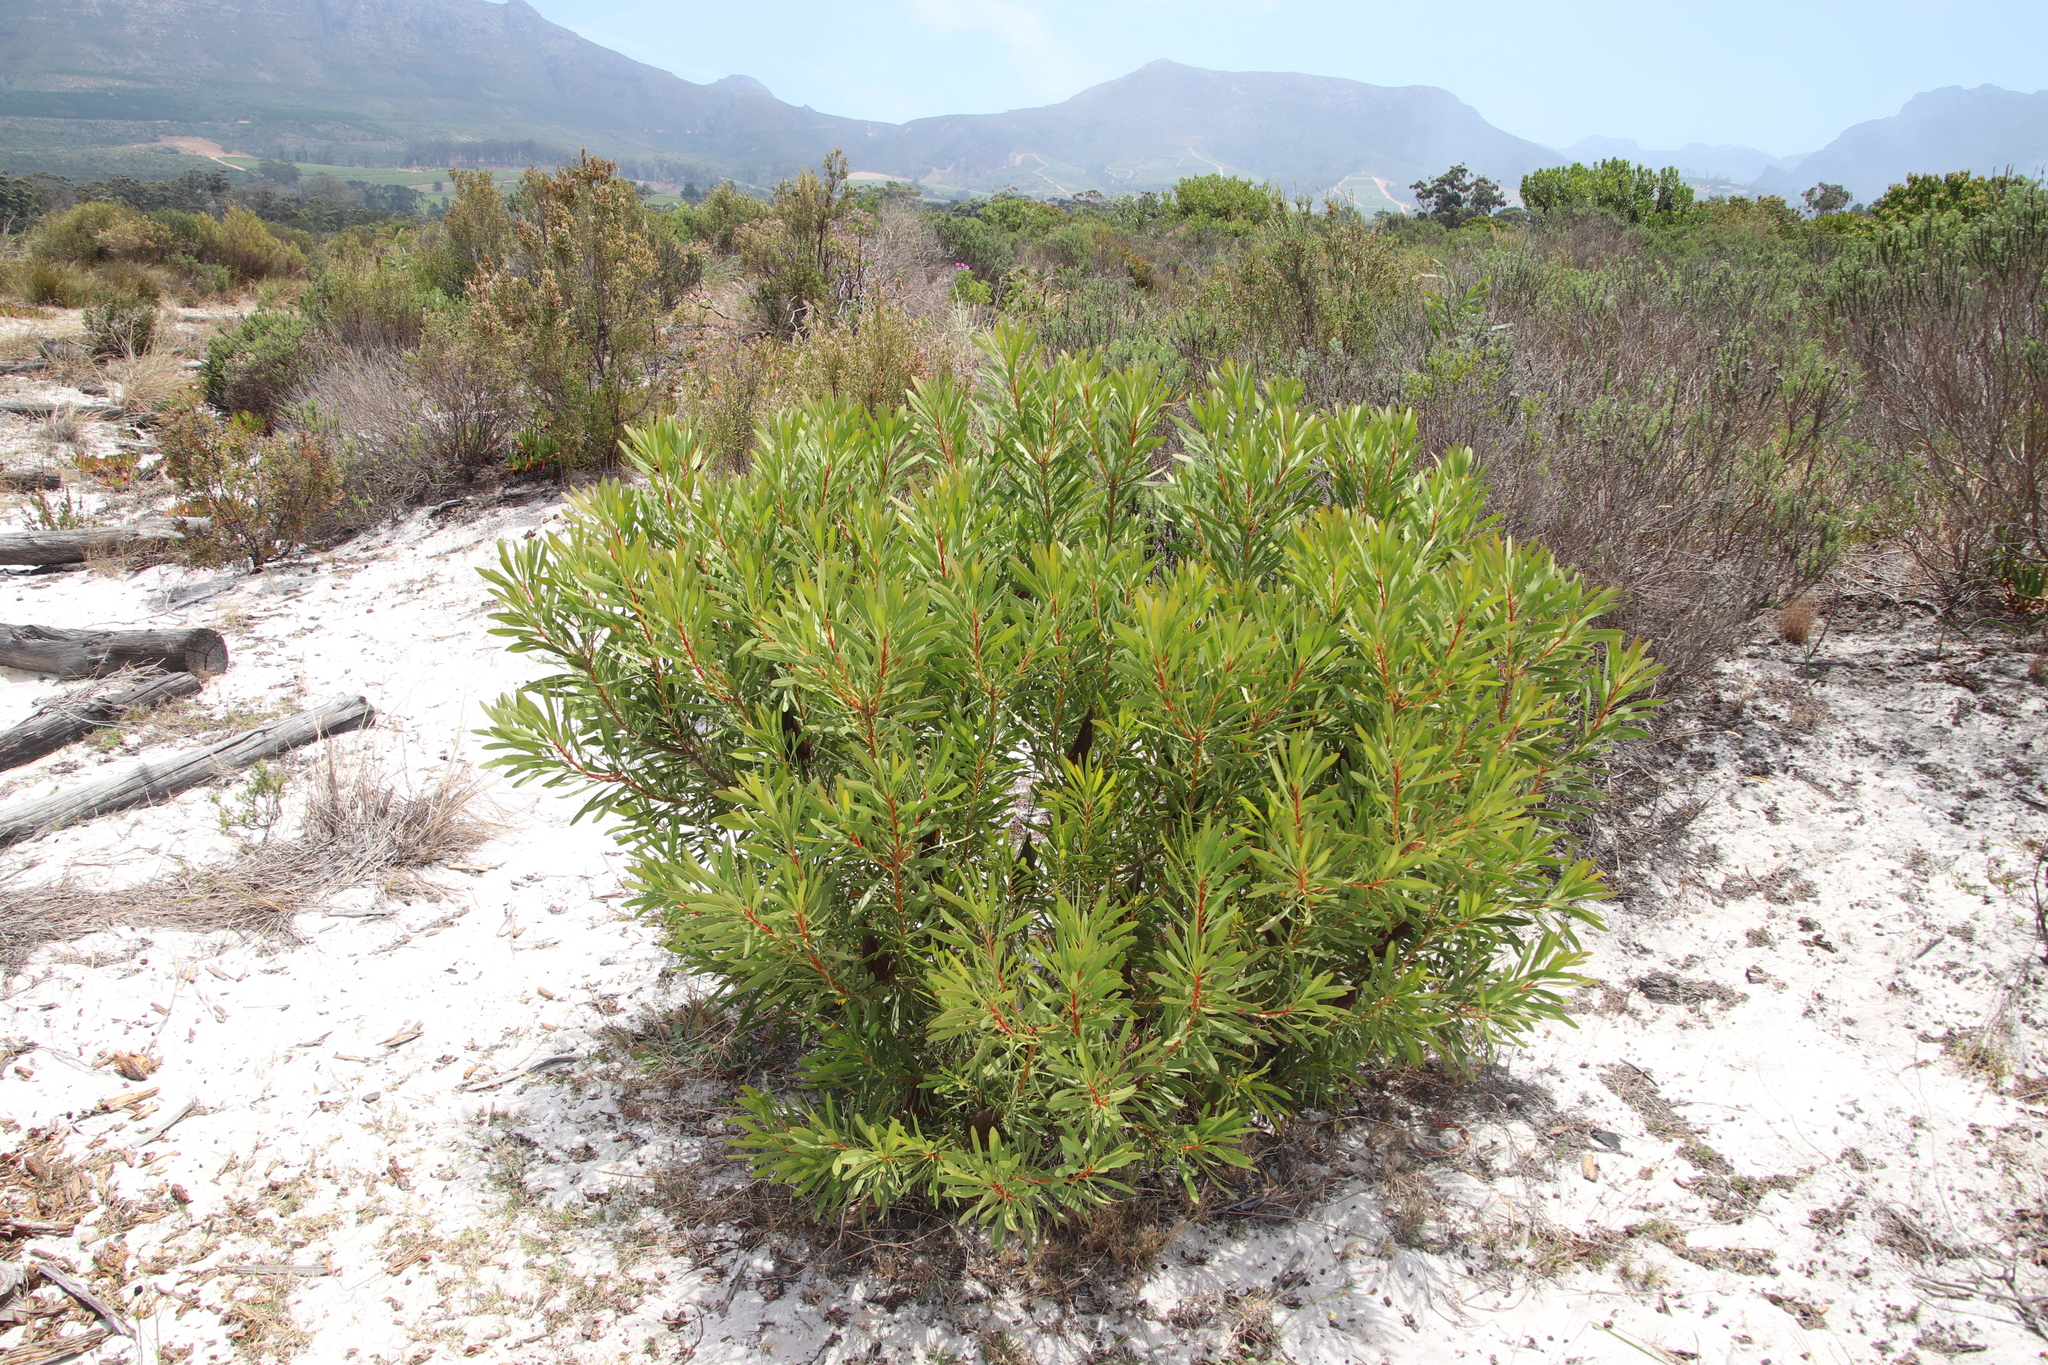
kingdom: Plantae
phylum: Tracheophyta
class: Magnoliopsida
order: Proteales
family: Proteaceae
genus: Protea
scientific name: Protea repens
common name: Sugarbush
